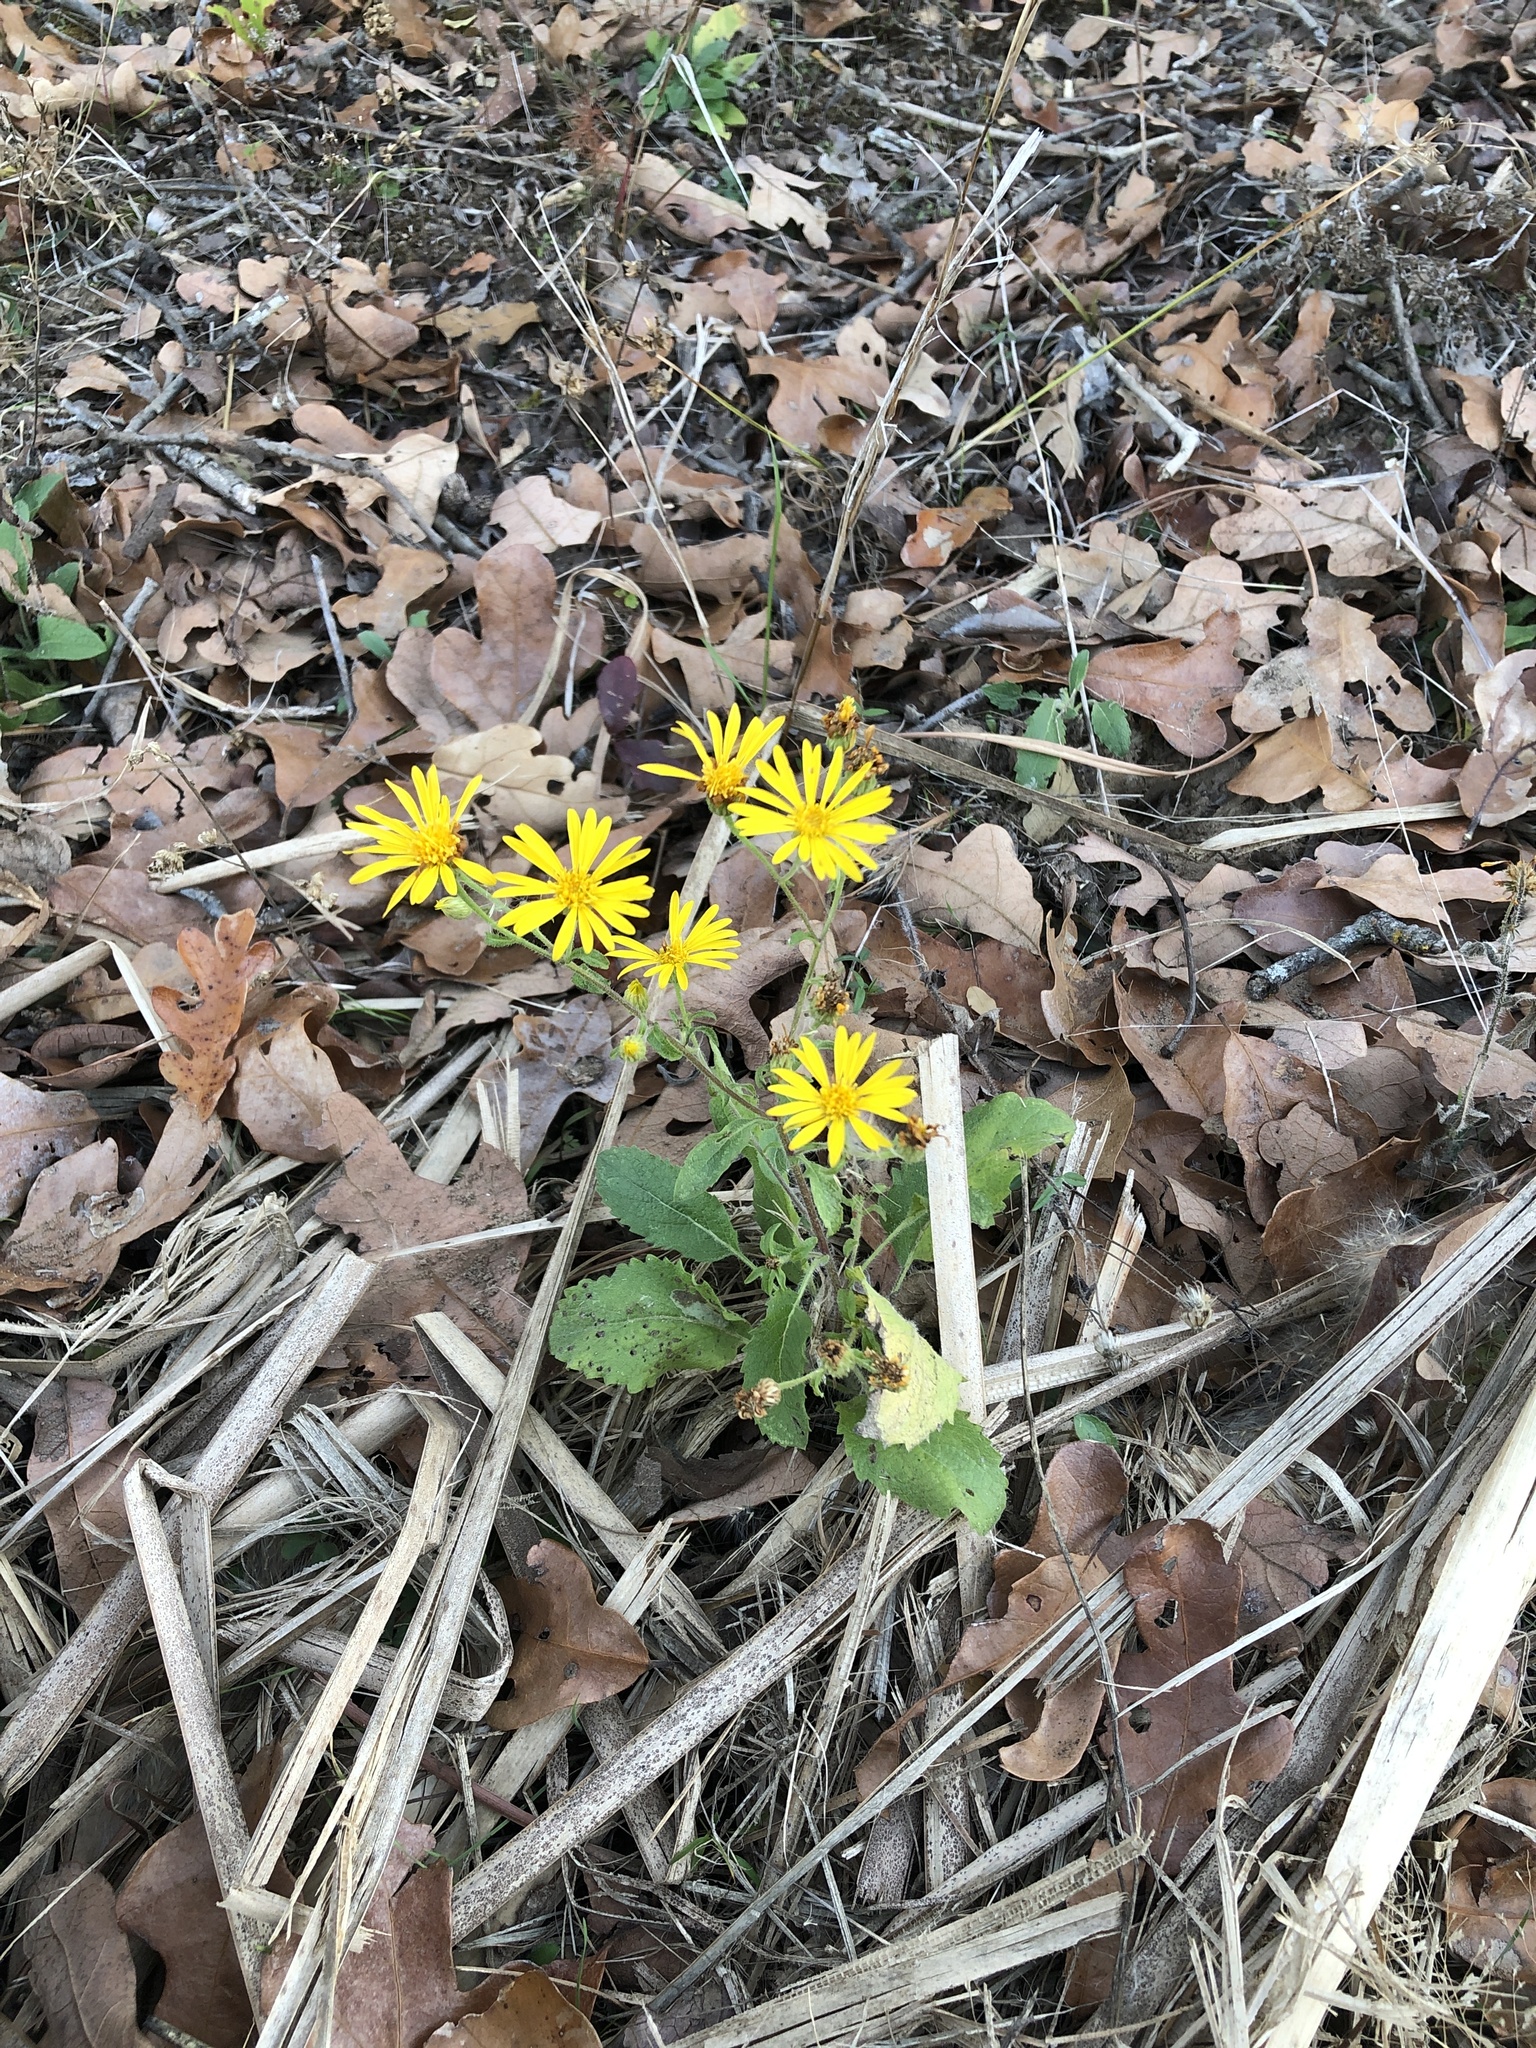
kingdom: Plantae
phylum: Tracheophyta
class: Magnoliopsida
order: Asterales
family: Asteraceae
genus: Heterotheca
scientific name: Heterotheca subaxillaris
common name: Camphorweed
